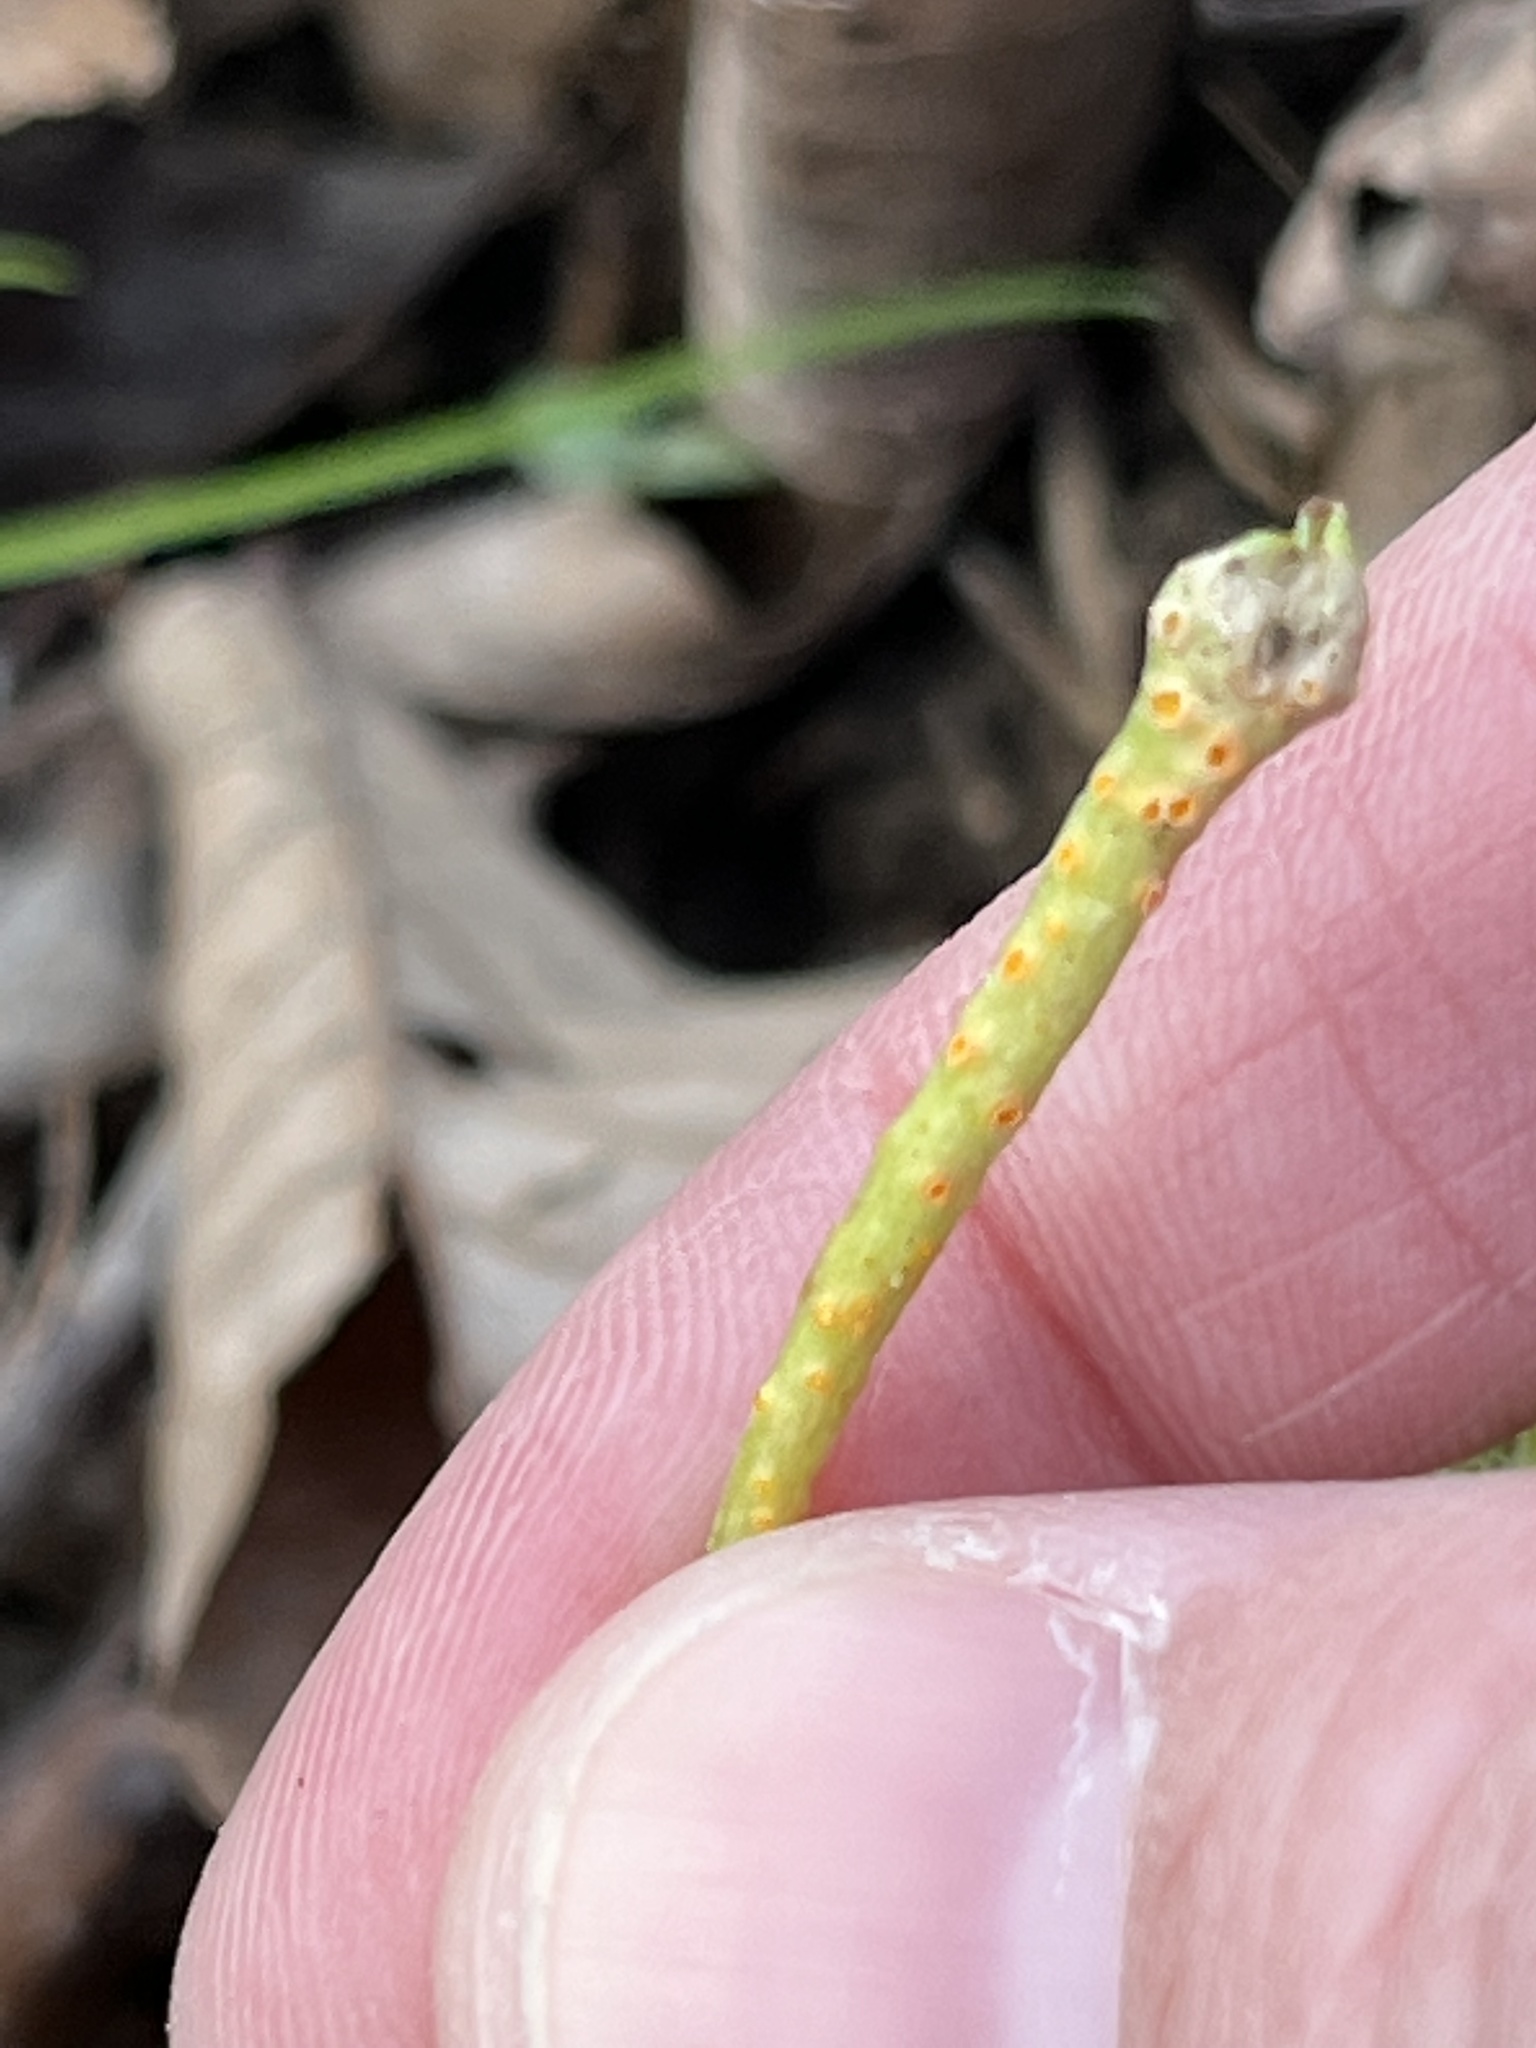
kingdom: Fungi
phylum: Basidiomycota
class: Pucciniomycetes
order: Pucciniales
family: Pucciniaceae
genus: Puccinia
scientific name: Puccinia mariae-wilsoniae
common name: Spring beauty rust
